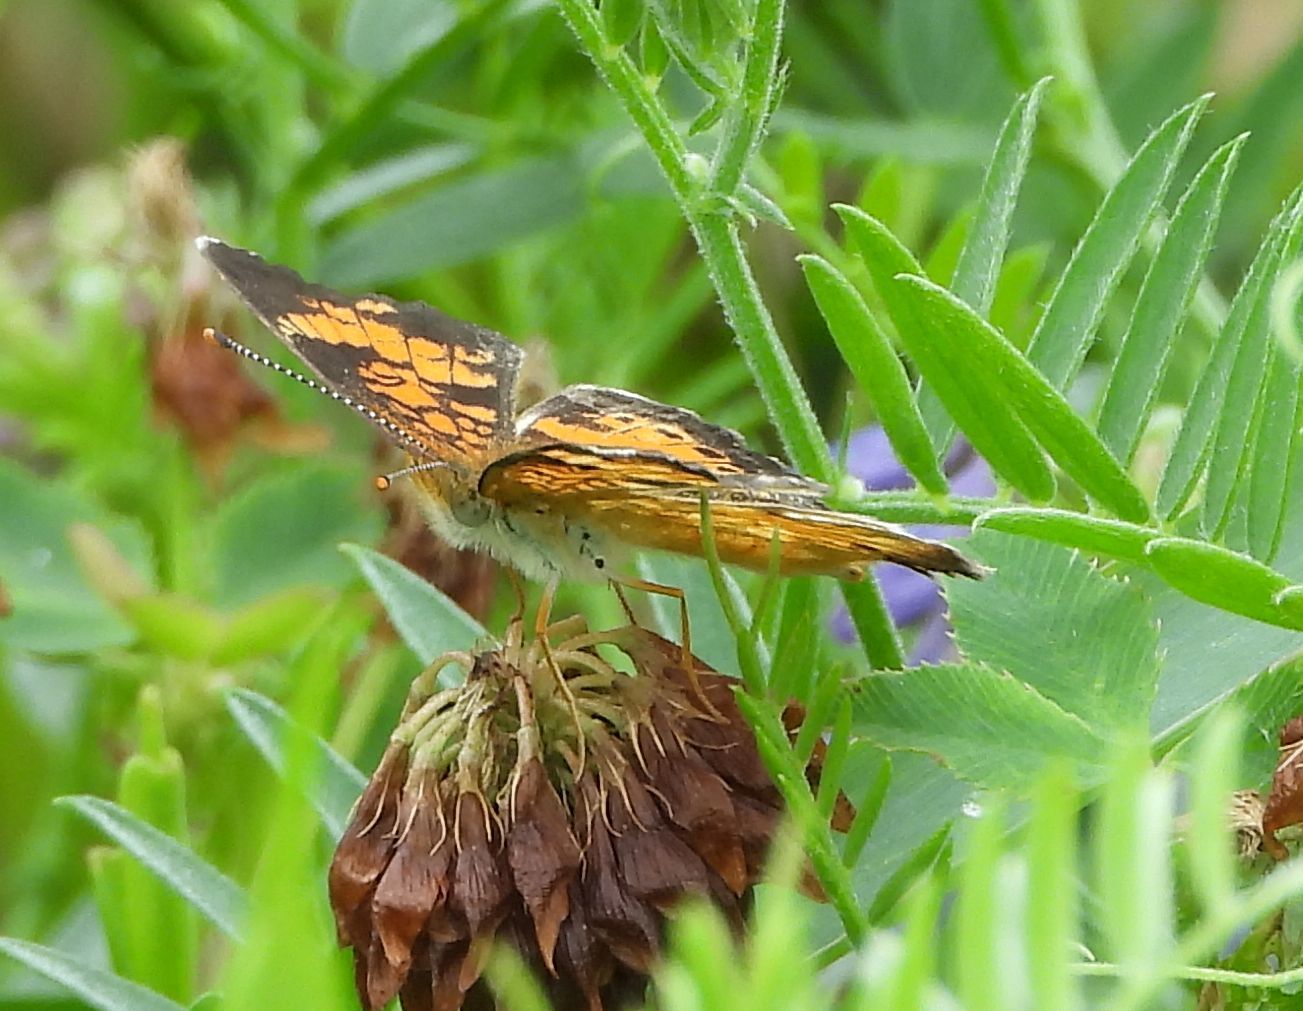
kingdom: Animalia
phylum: Arthropoda
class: Insecta
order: Lepidoptera
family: Nymphalidae
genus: Phyciodes
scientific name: Phyciodes tharos
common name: Pearl crescent
